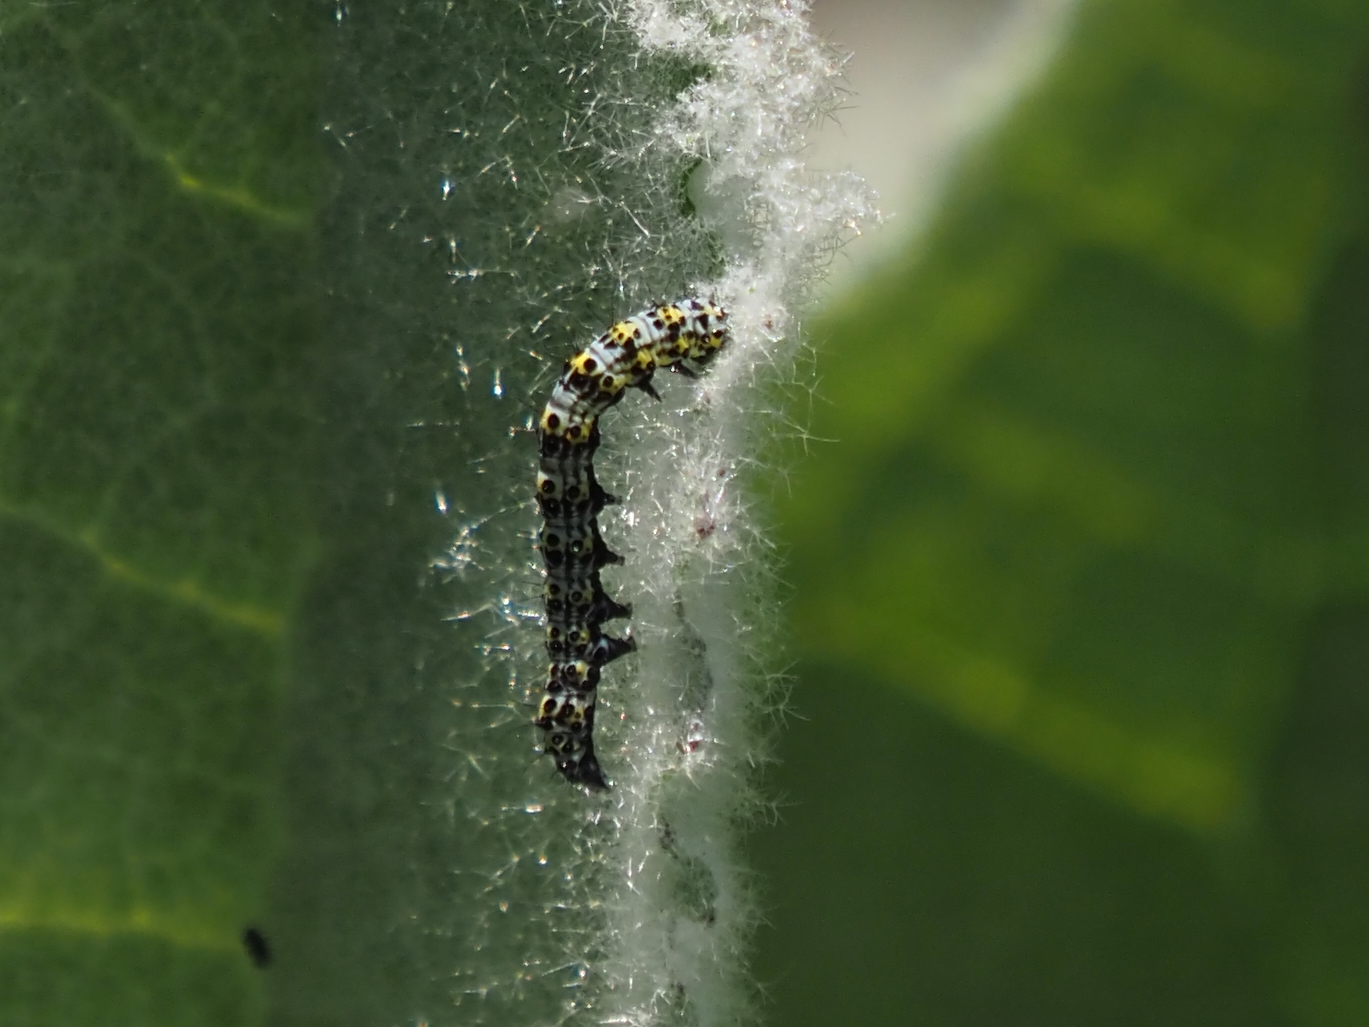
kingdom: Animalia
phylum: Arthropoda
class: Insecta
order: Lepidoptera
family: Noctuidae
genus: Cucullia
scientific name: Cucullia verbasci
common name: Mullein
